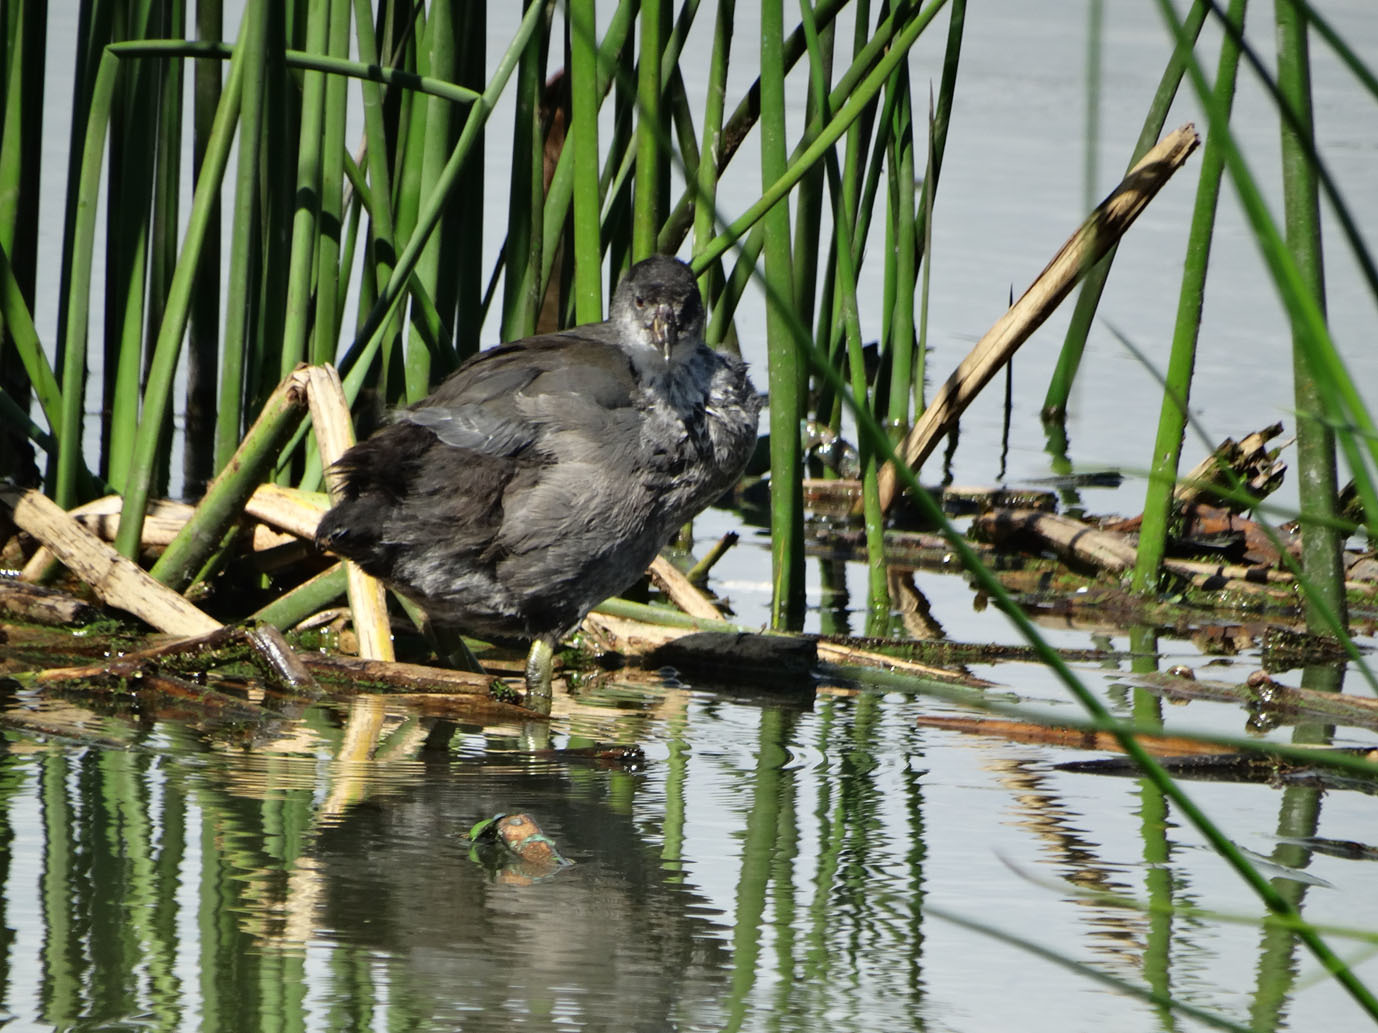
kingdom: Animalia
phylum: Chordata
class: Aves
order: Gruiformes
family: Rallidae
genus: Fulica
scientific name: Fulica americana
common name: American coot
